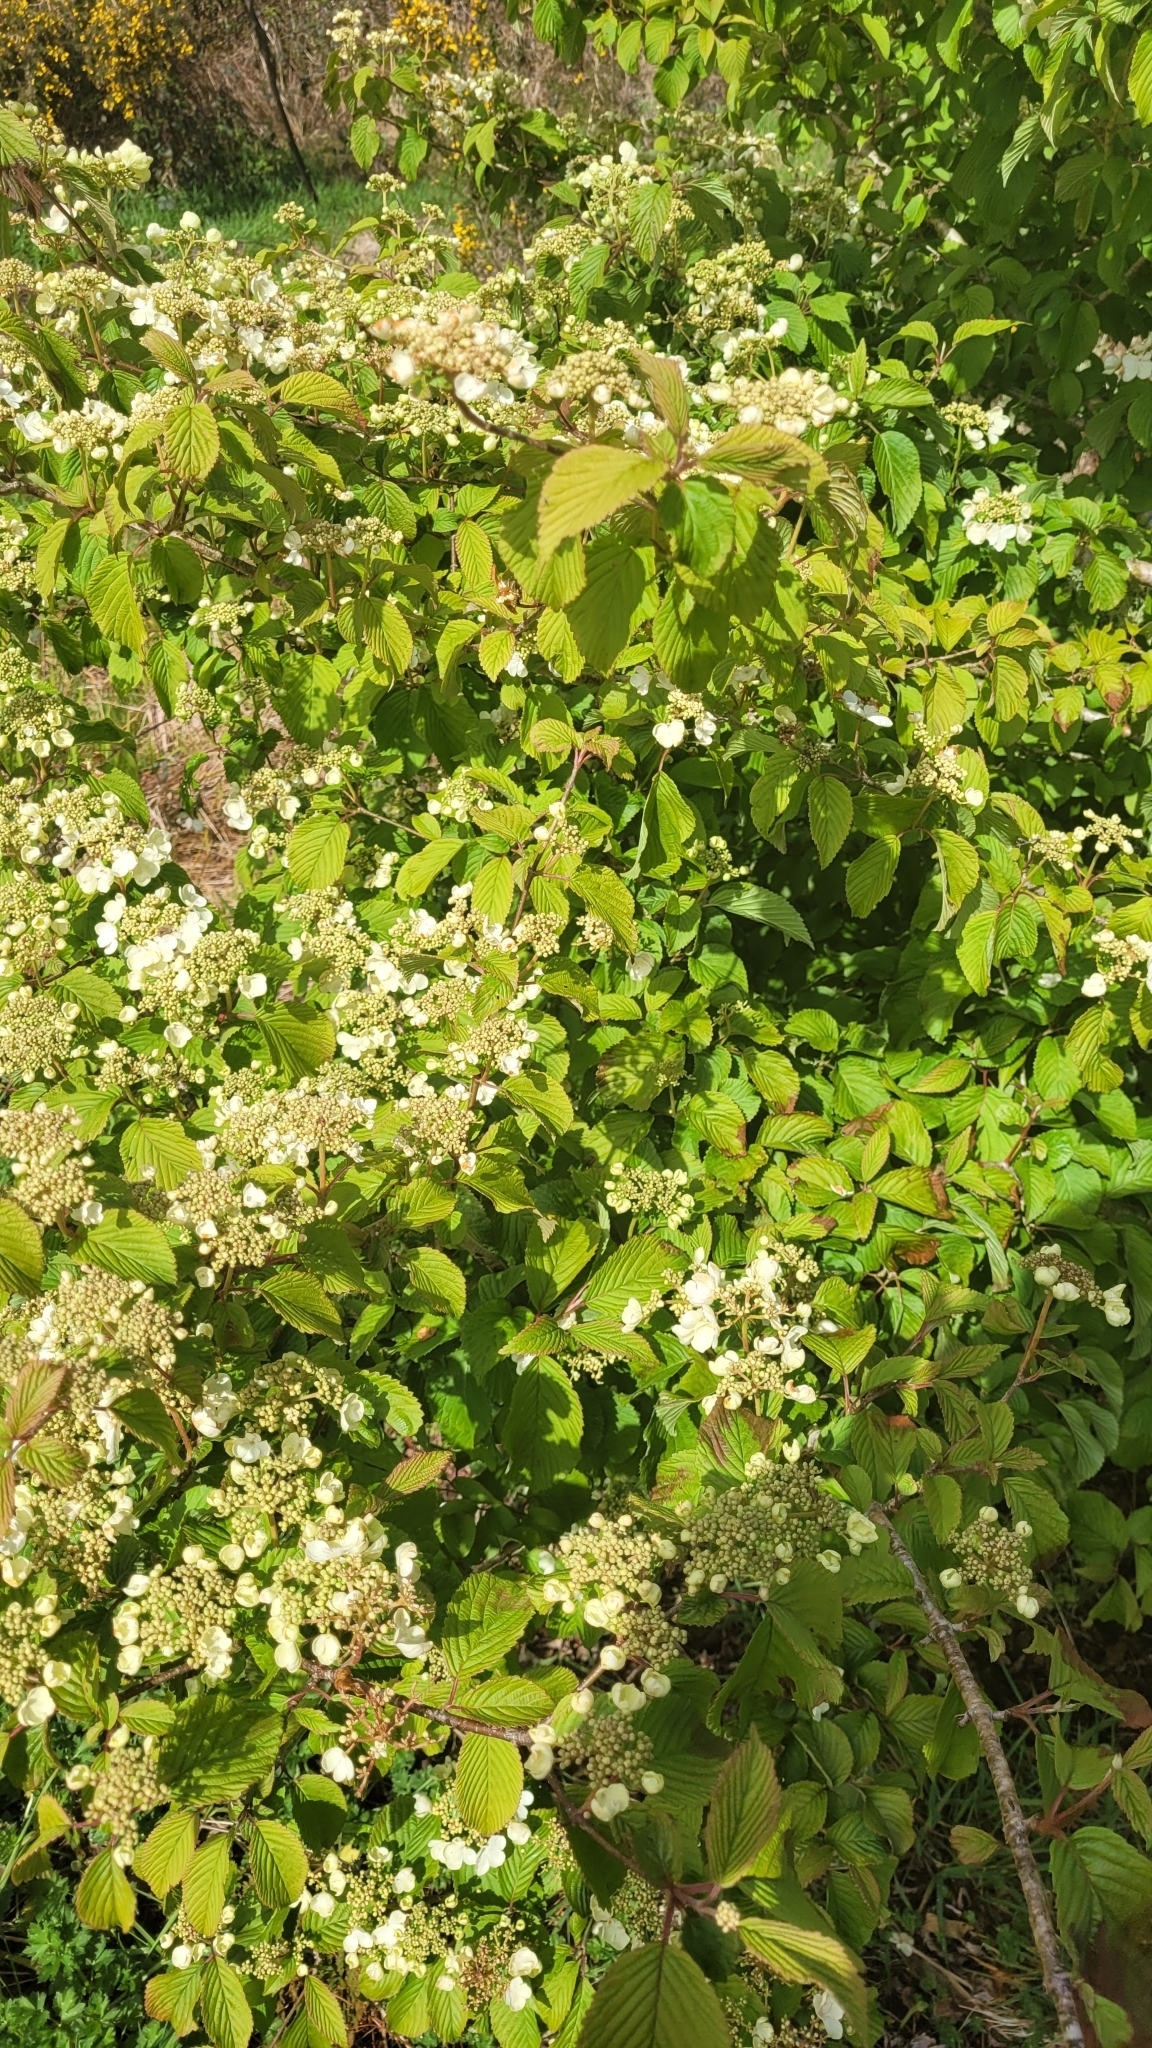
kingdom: Plantae
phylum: Tracheophyta
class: Magnoliopsida
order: Dipsacales
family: Viburnaceae
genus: Viburnum
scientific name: Viburnum plicatum
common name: Japanese snowball
